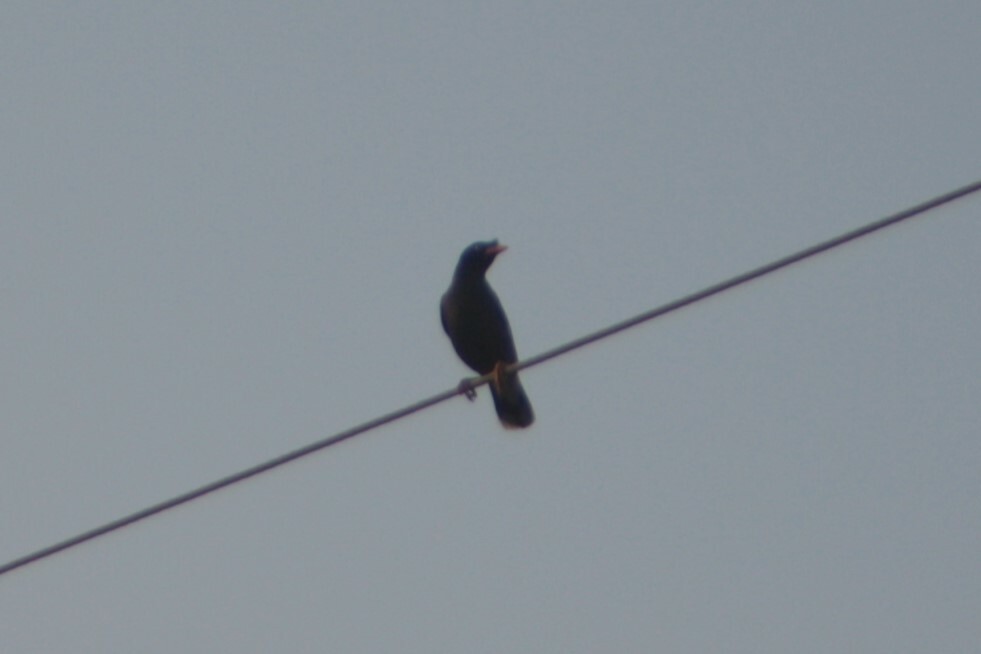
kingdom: Animalia
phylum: Chordata
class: Aves
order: Passeriformes
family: Sturnidae
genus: Acridotheres
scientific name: Acridotheres javanicus
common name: Javan myna
